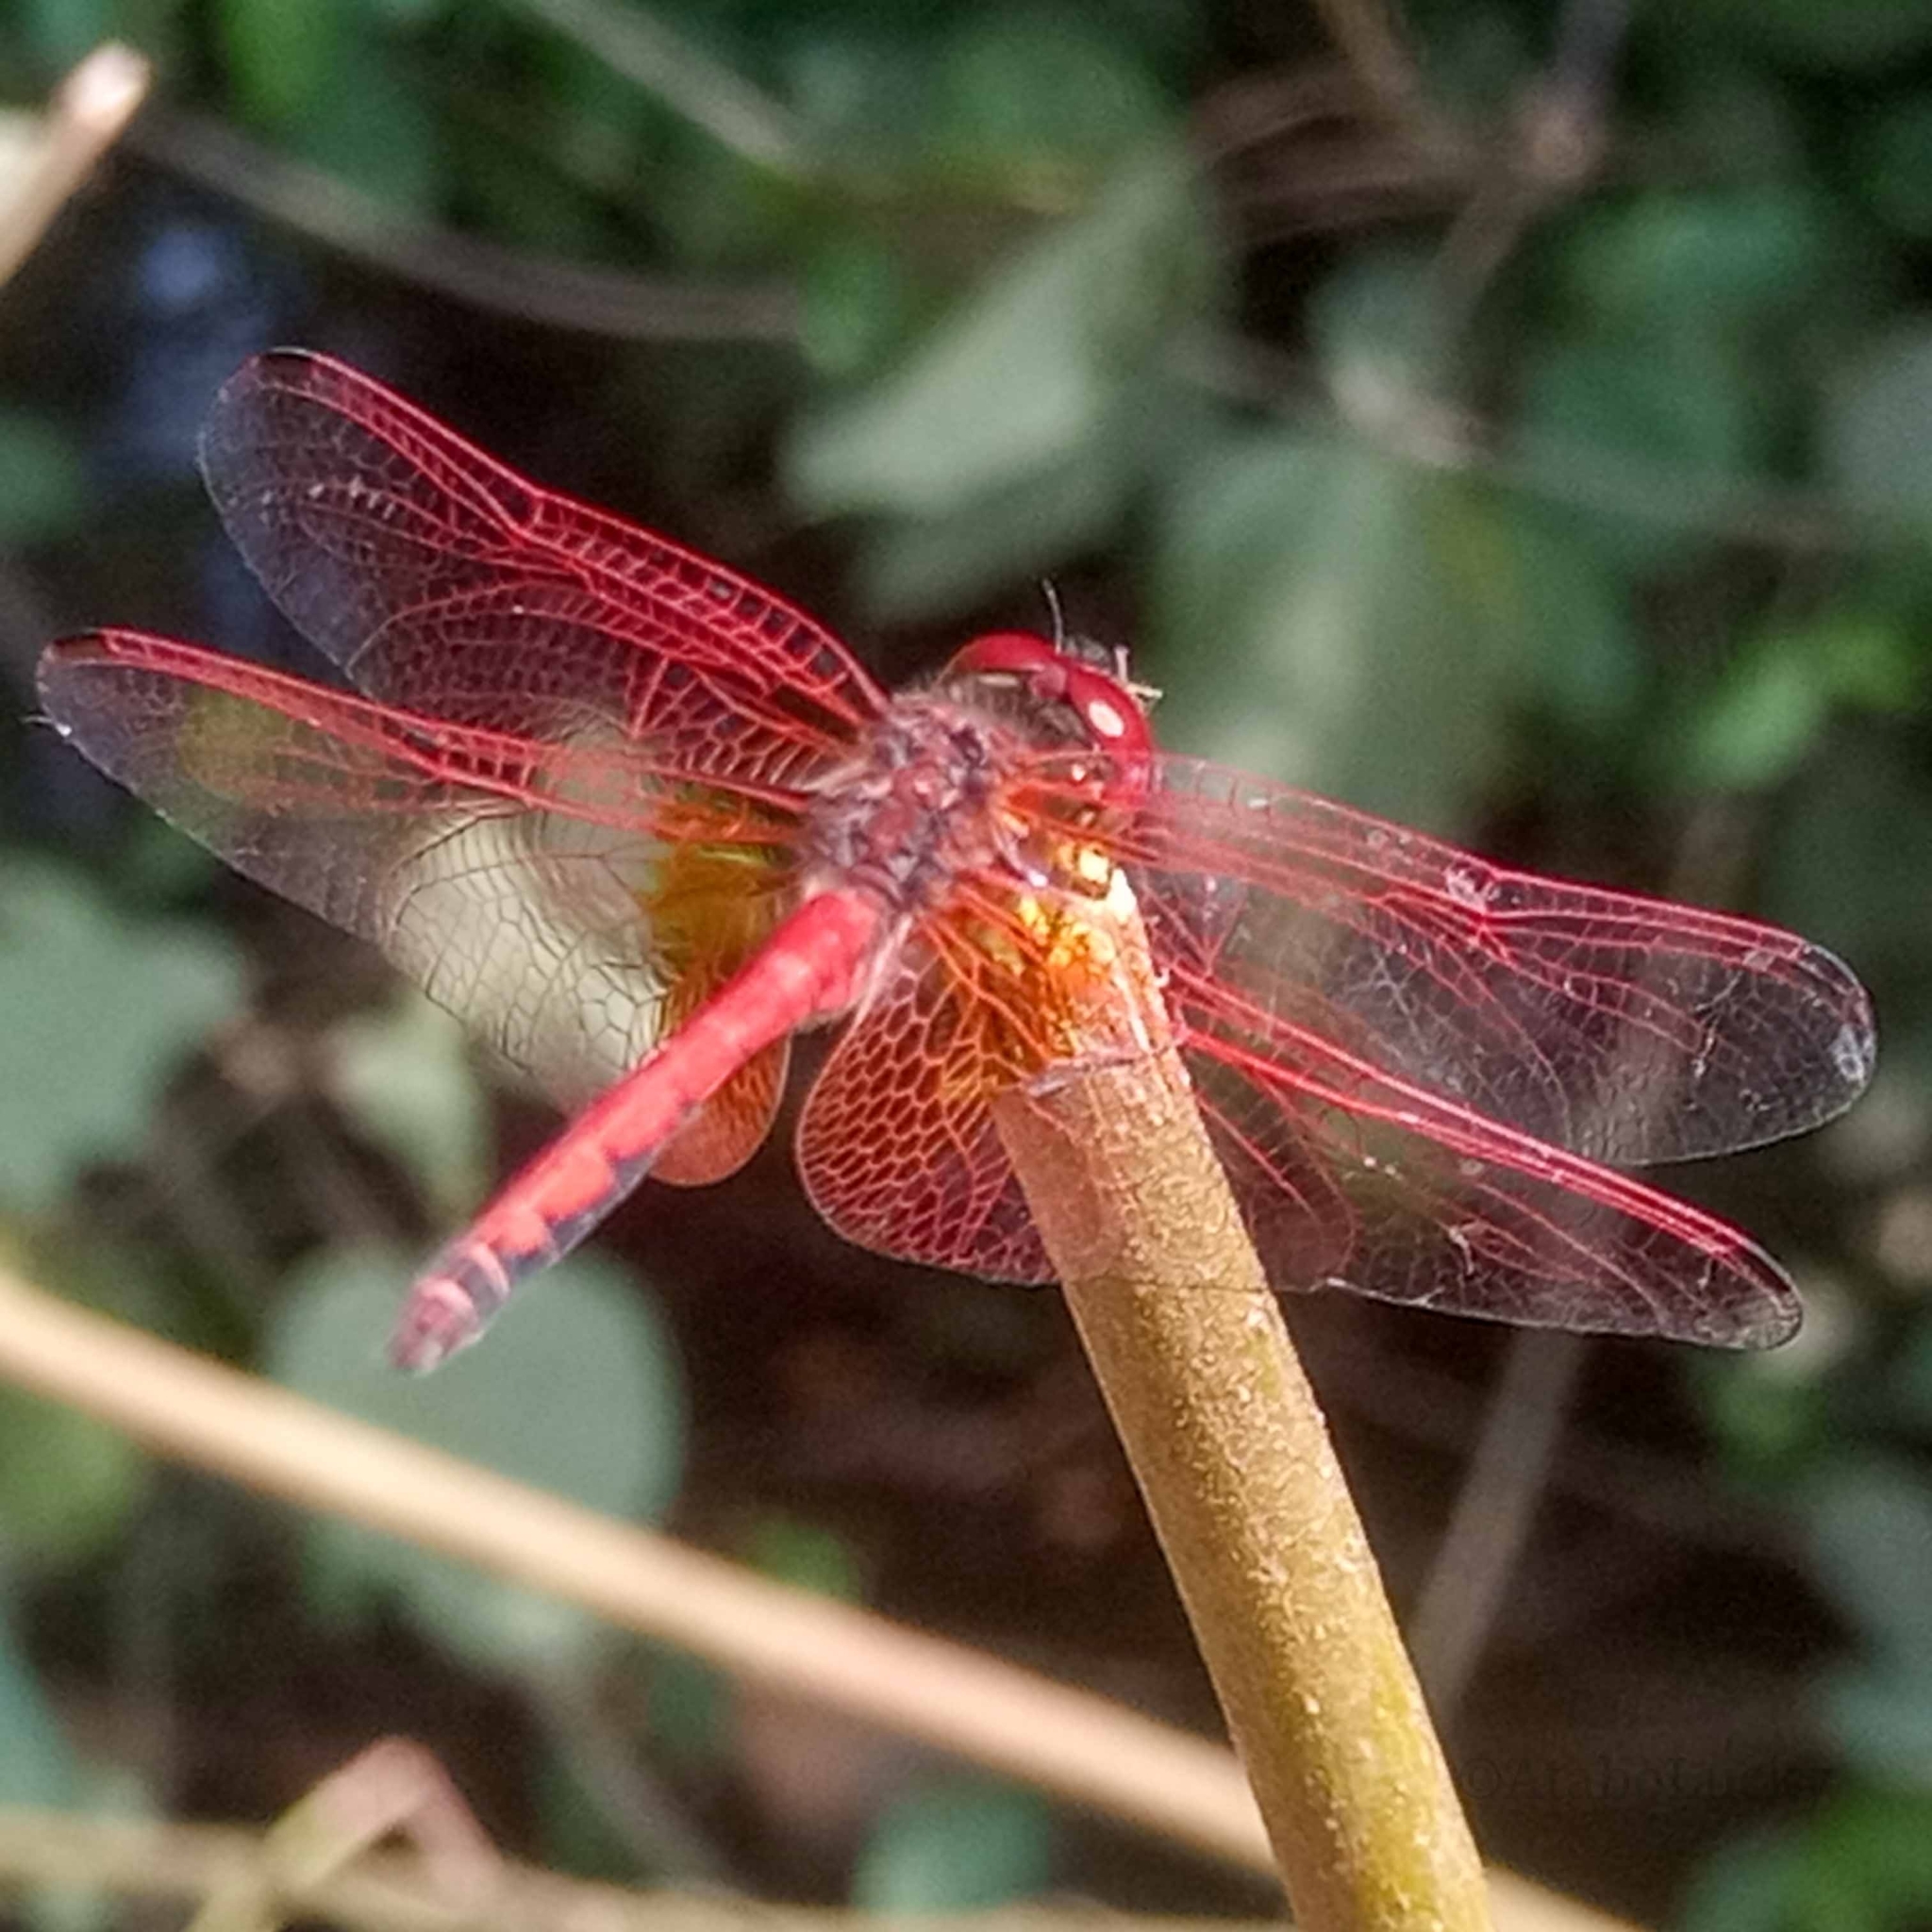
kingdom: Animalia
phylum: Arthropoda
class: Insecta
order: Odonata
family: Libellulidae
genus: Trithemis
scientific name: Trithemis arteriosa
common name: Red-veined dropwing
